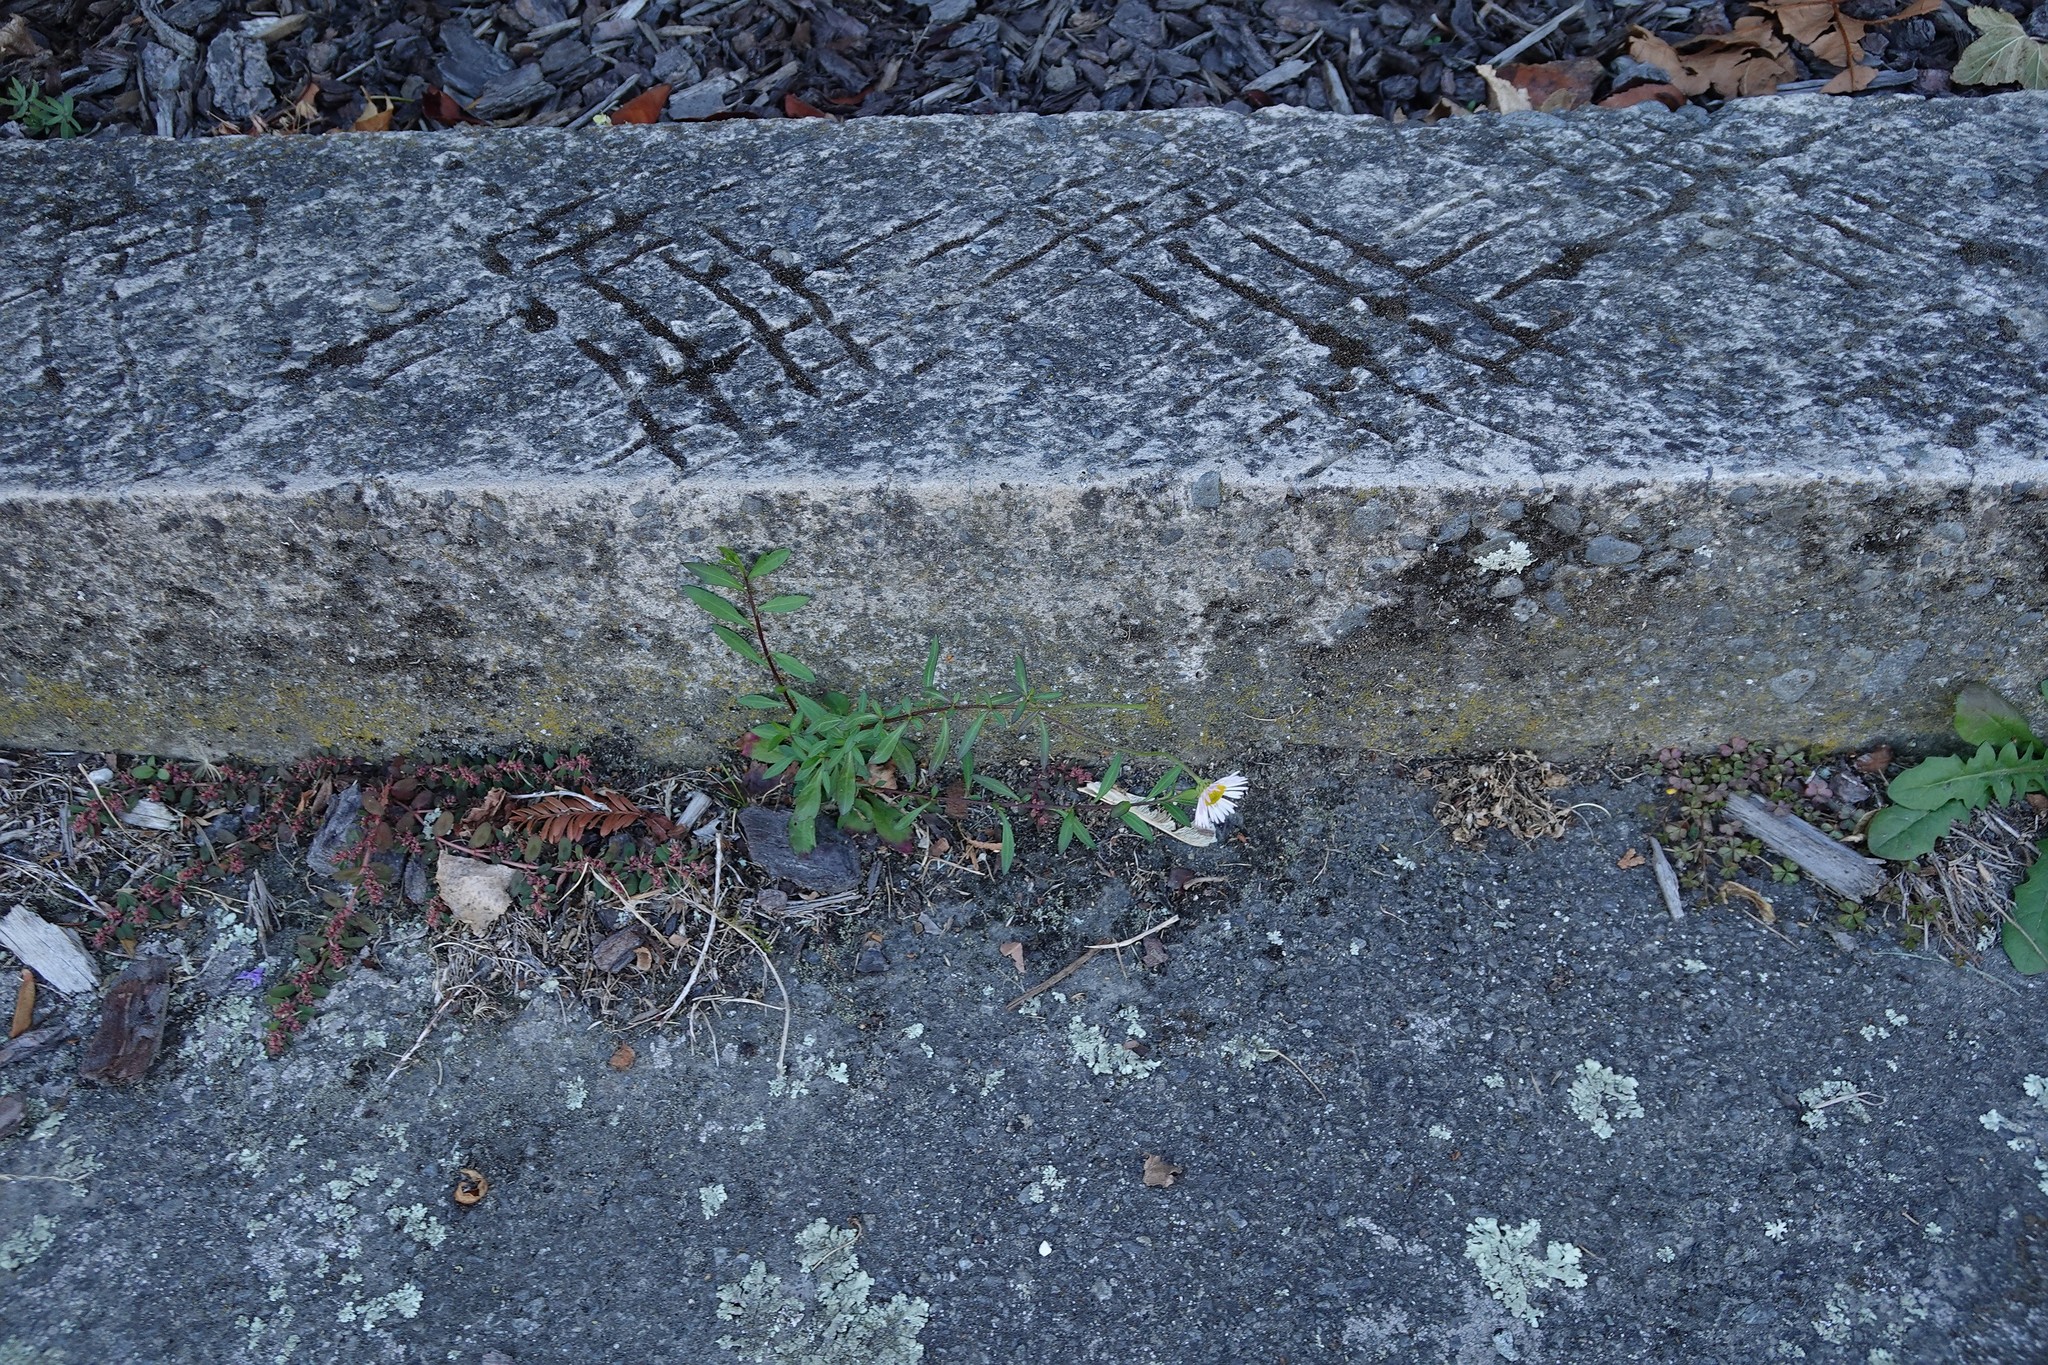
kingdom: Plantae
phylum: Tracheophyta
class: Magnoliopsida
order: Asterales
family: Asteraceae
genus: Erigeron
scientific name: Erigeron karvinskianus
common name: Mexican fleabane
